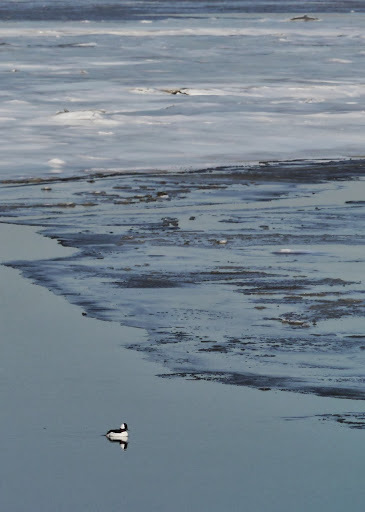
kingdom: Animalia
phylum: Chordata
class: Aves
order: Anseriformes
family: Anatidae
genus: Bucephala
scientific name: Bucephala albeola
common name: Bufflehead
